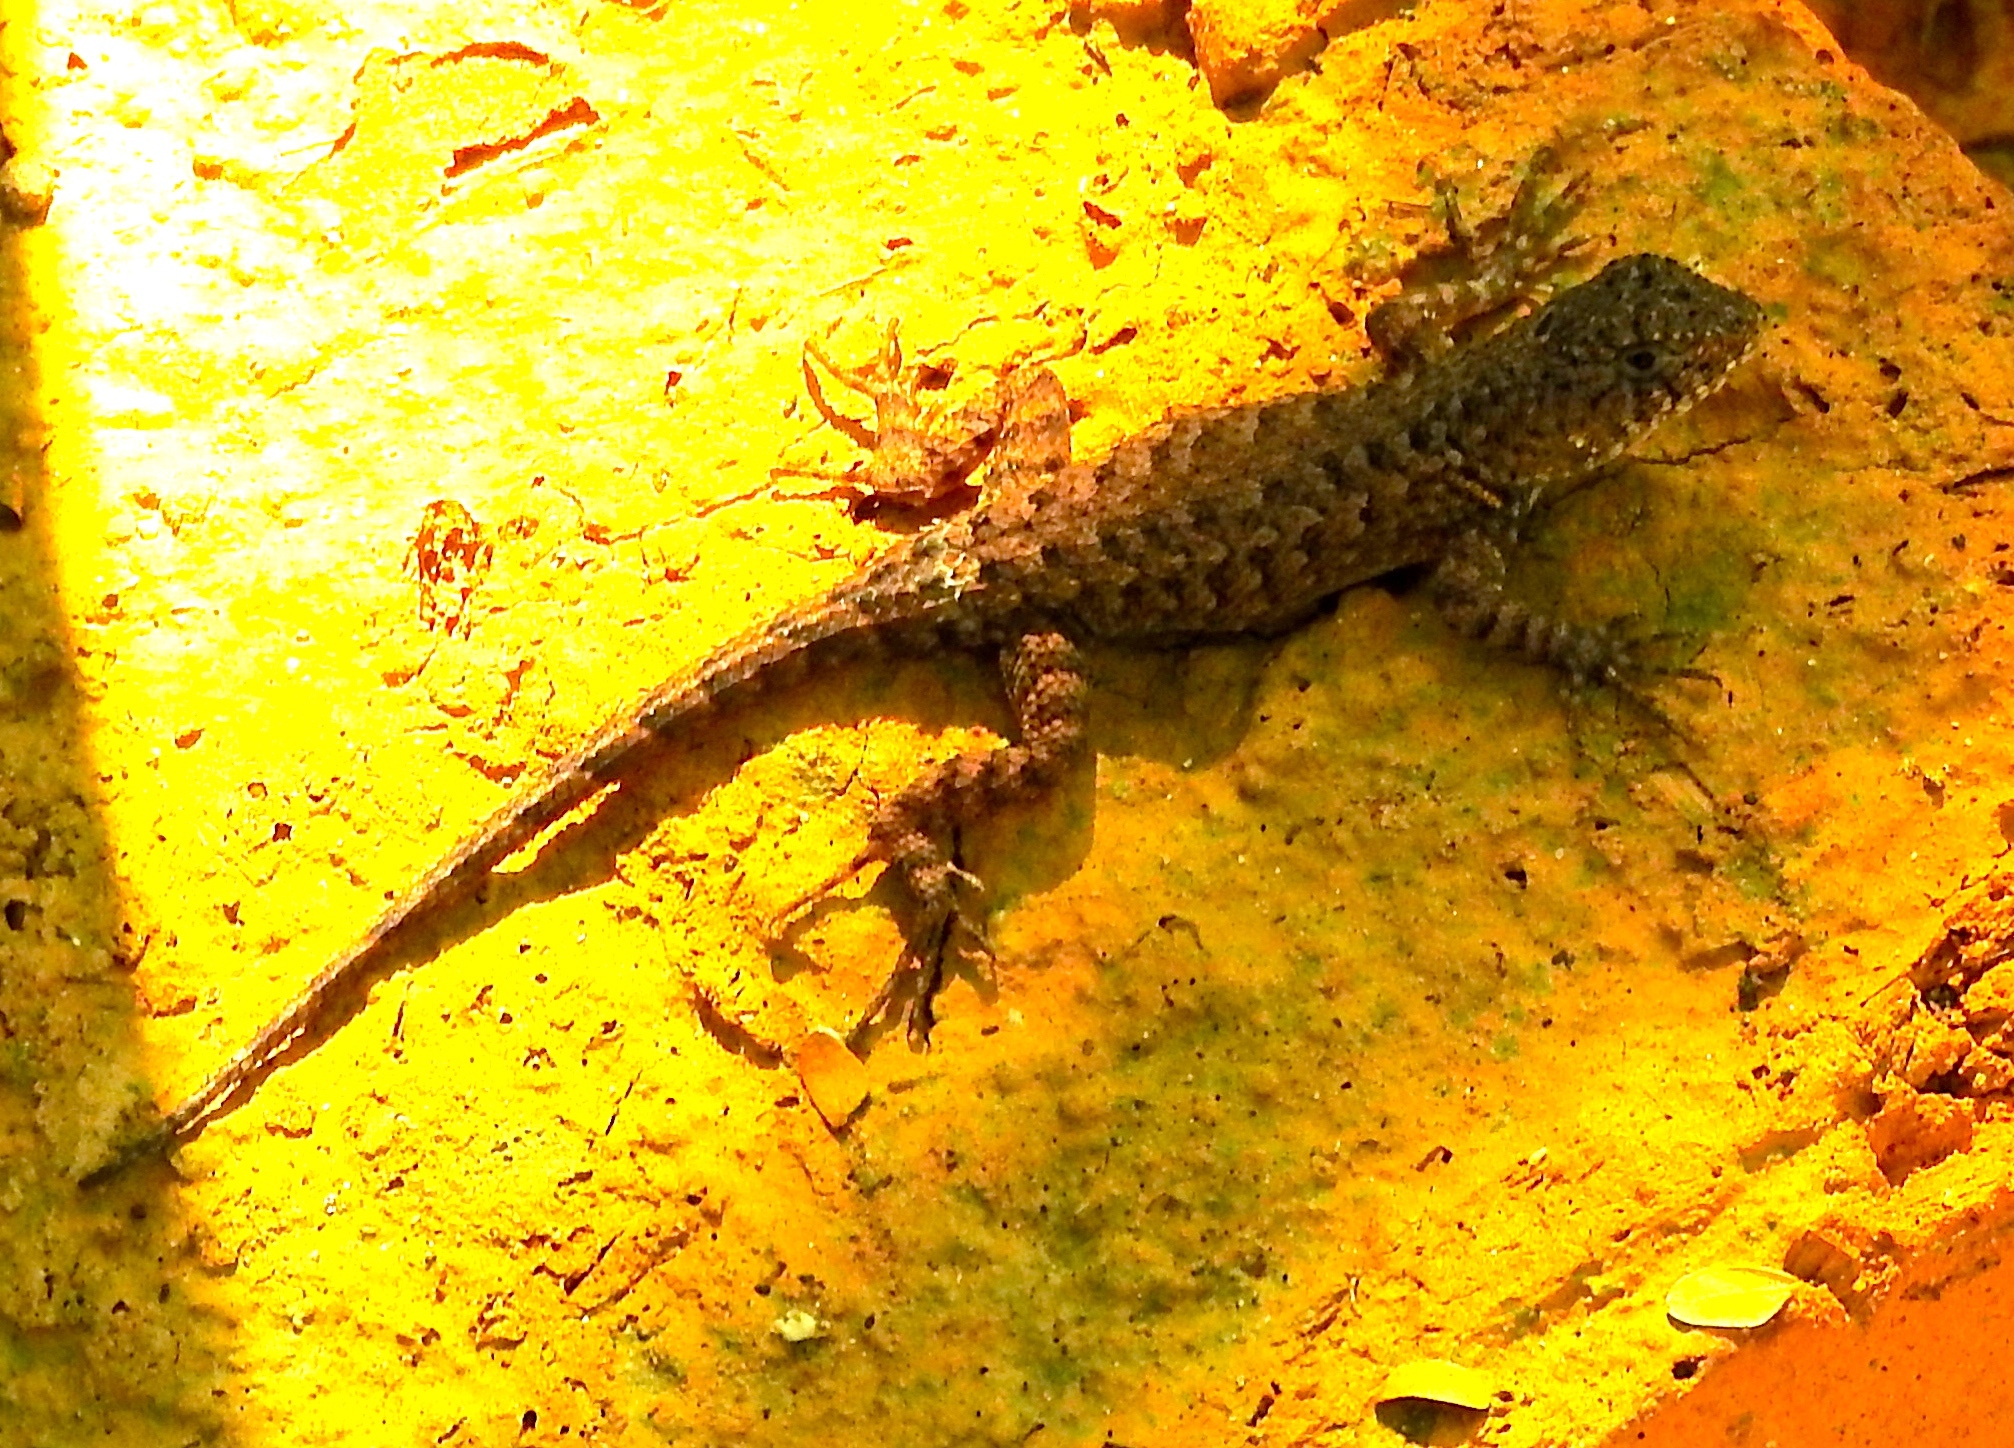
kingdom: Animalia
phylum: Chordata
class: Squamata
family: Phrynosomatidae
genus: Sceloporus
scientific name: Sceloporus nelsoni
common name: Nelson's spiny lizard
